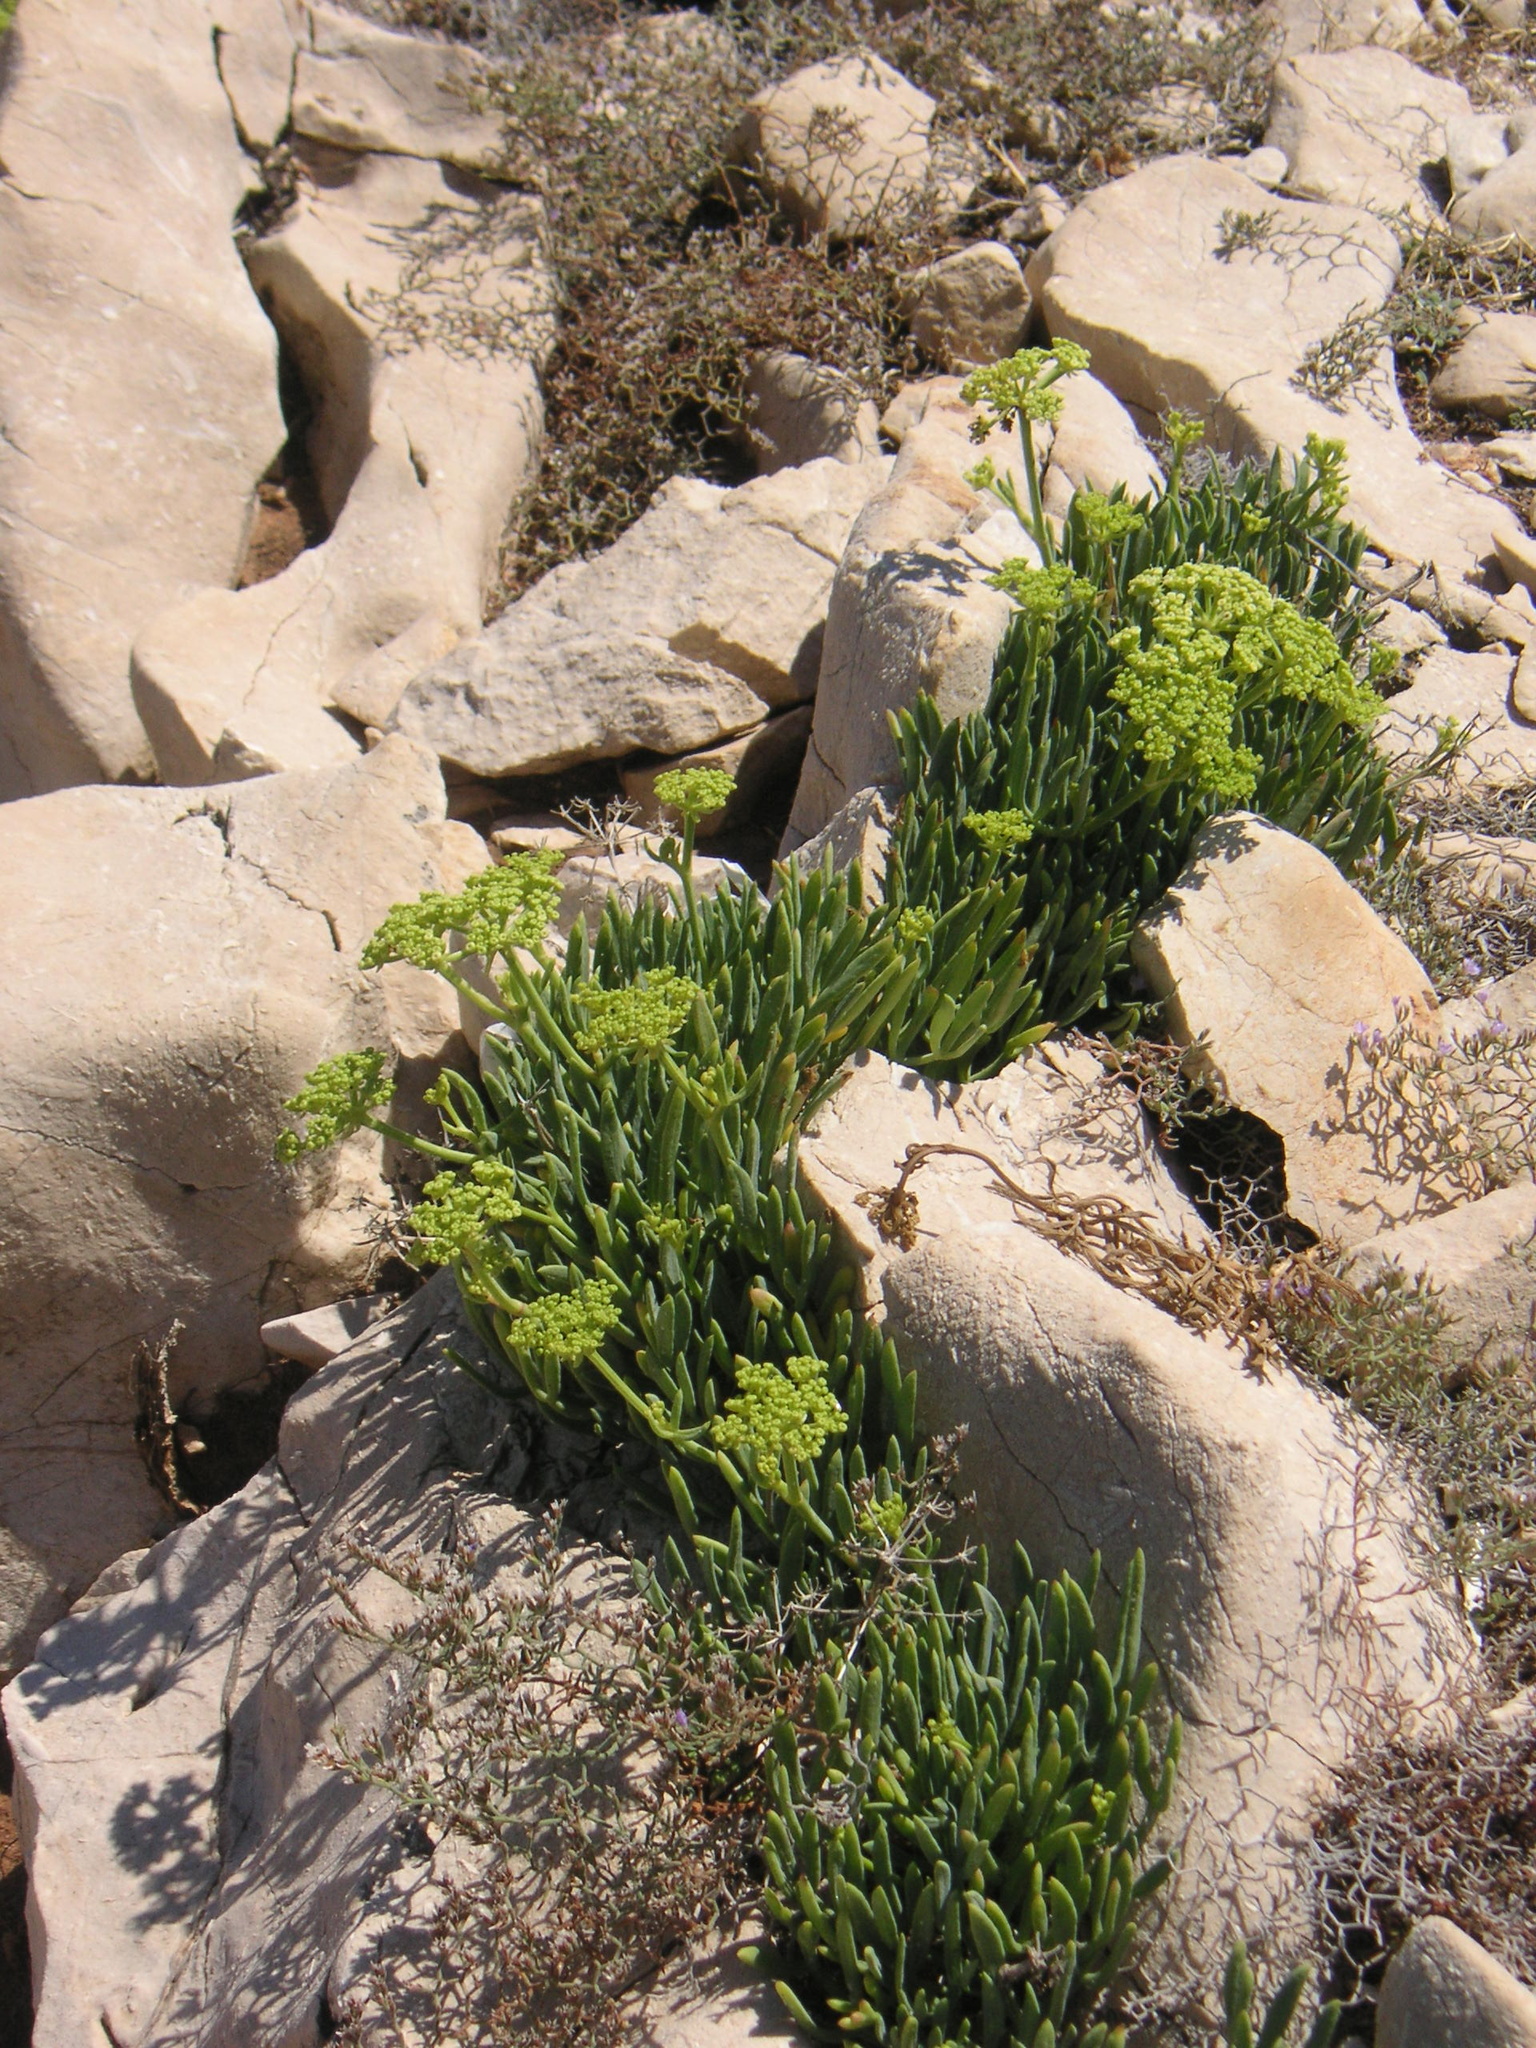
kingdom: Plantae
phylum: Tracheophyta
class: Magnoliopsida
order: Apiales
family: Apiaceae
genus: Crithmum
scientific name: Crithmum maritimum
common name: Rock samphire
